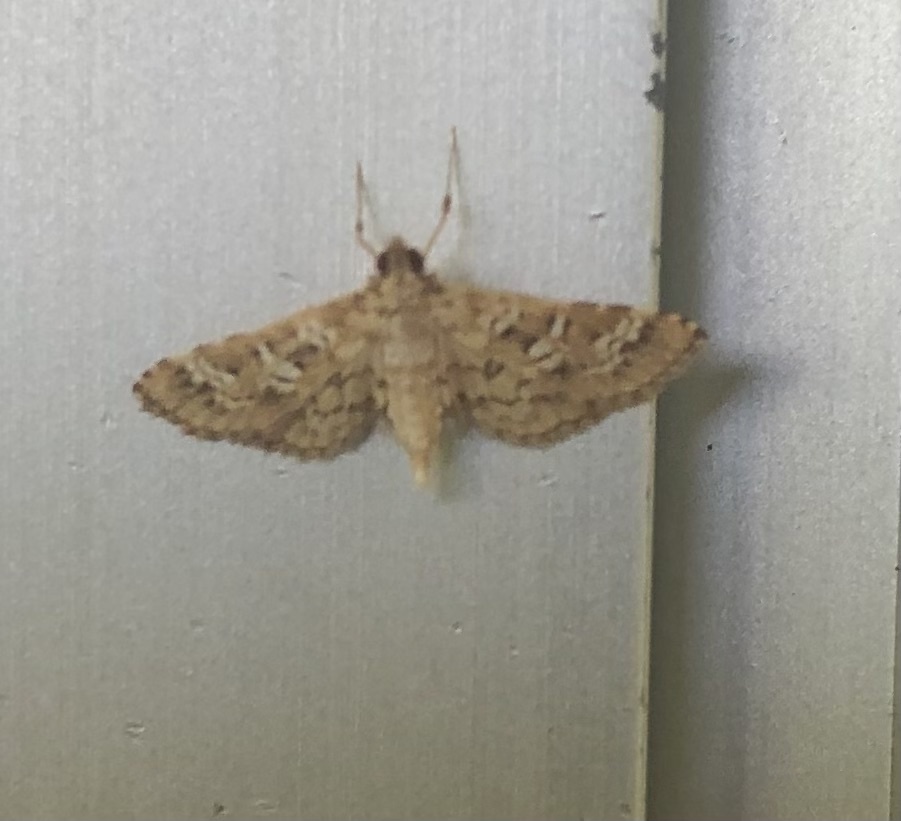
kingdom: Animalia
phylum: Arthropoda
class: Insecta
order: Lepidoptera
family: Crambidae
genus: Samea
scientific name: Samea multiplicalis
